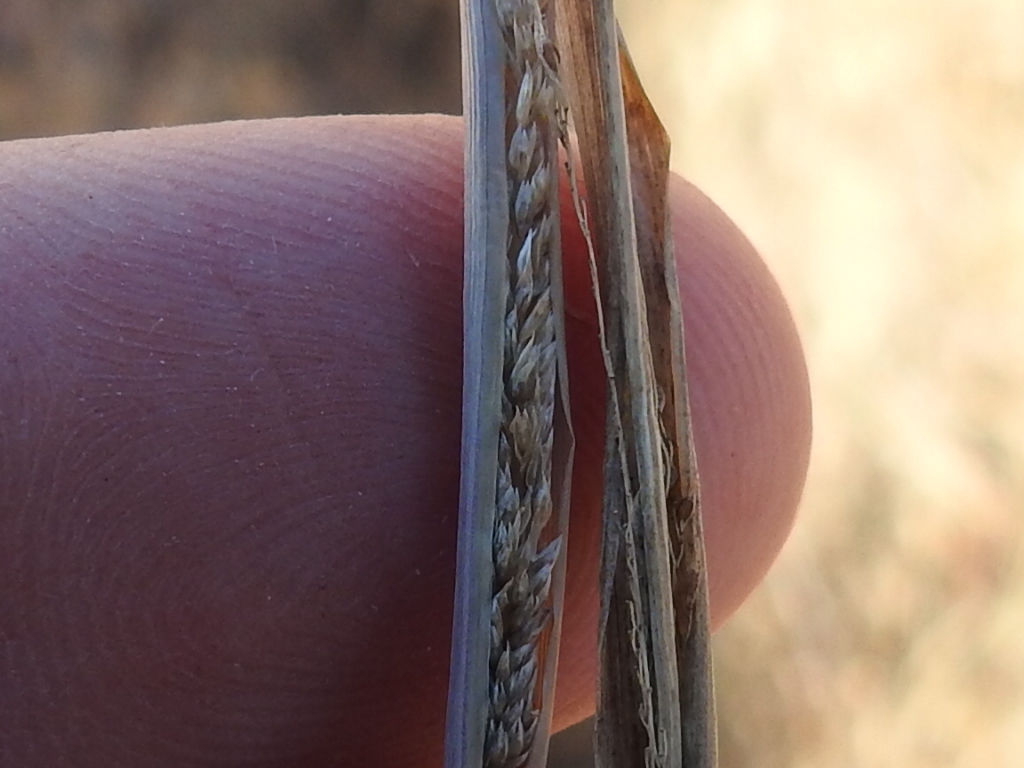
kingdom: Plantae
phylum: Tracheophyta
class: Liliopsida
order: Poales
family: Poaceae
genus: Sporobolus
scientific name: Sporobolus cryptandrus
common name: Sand dropseed
